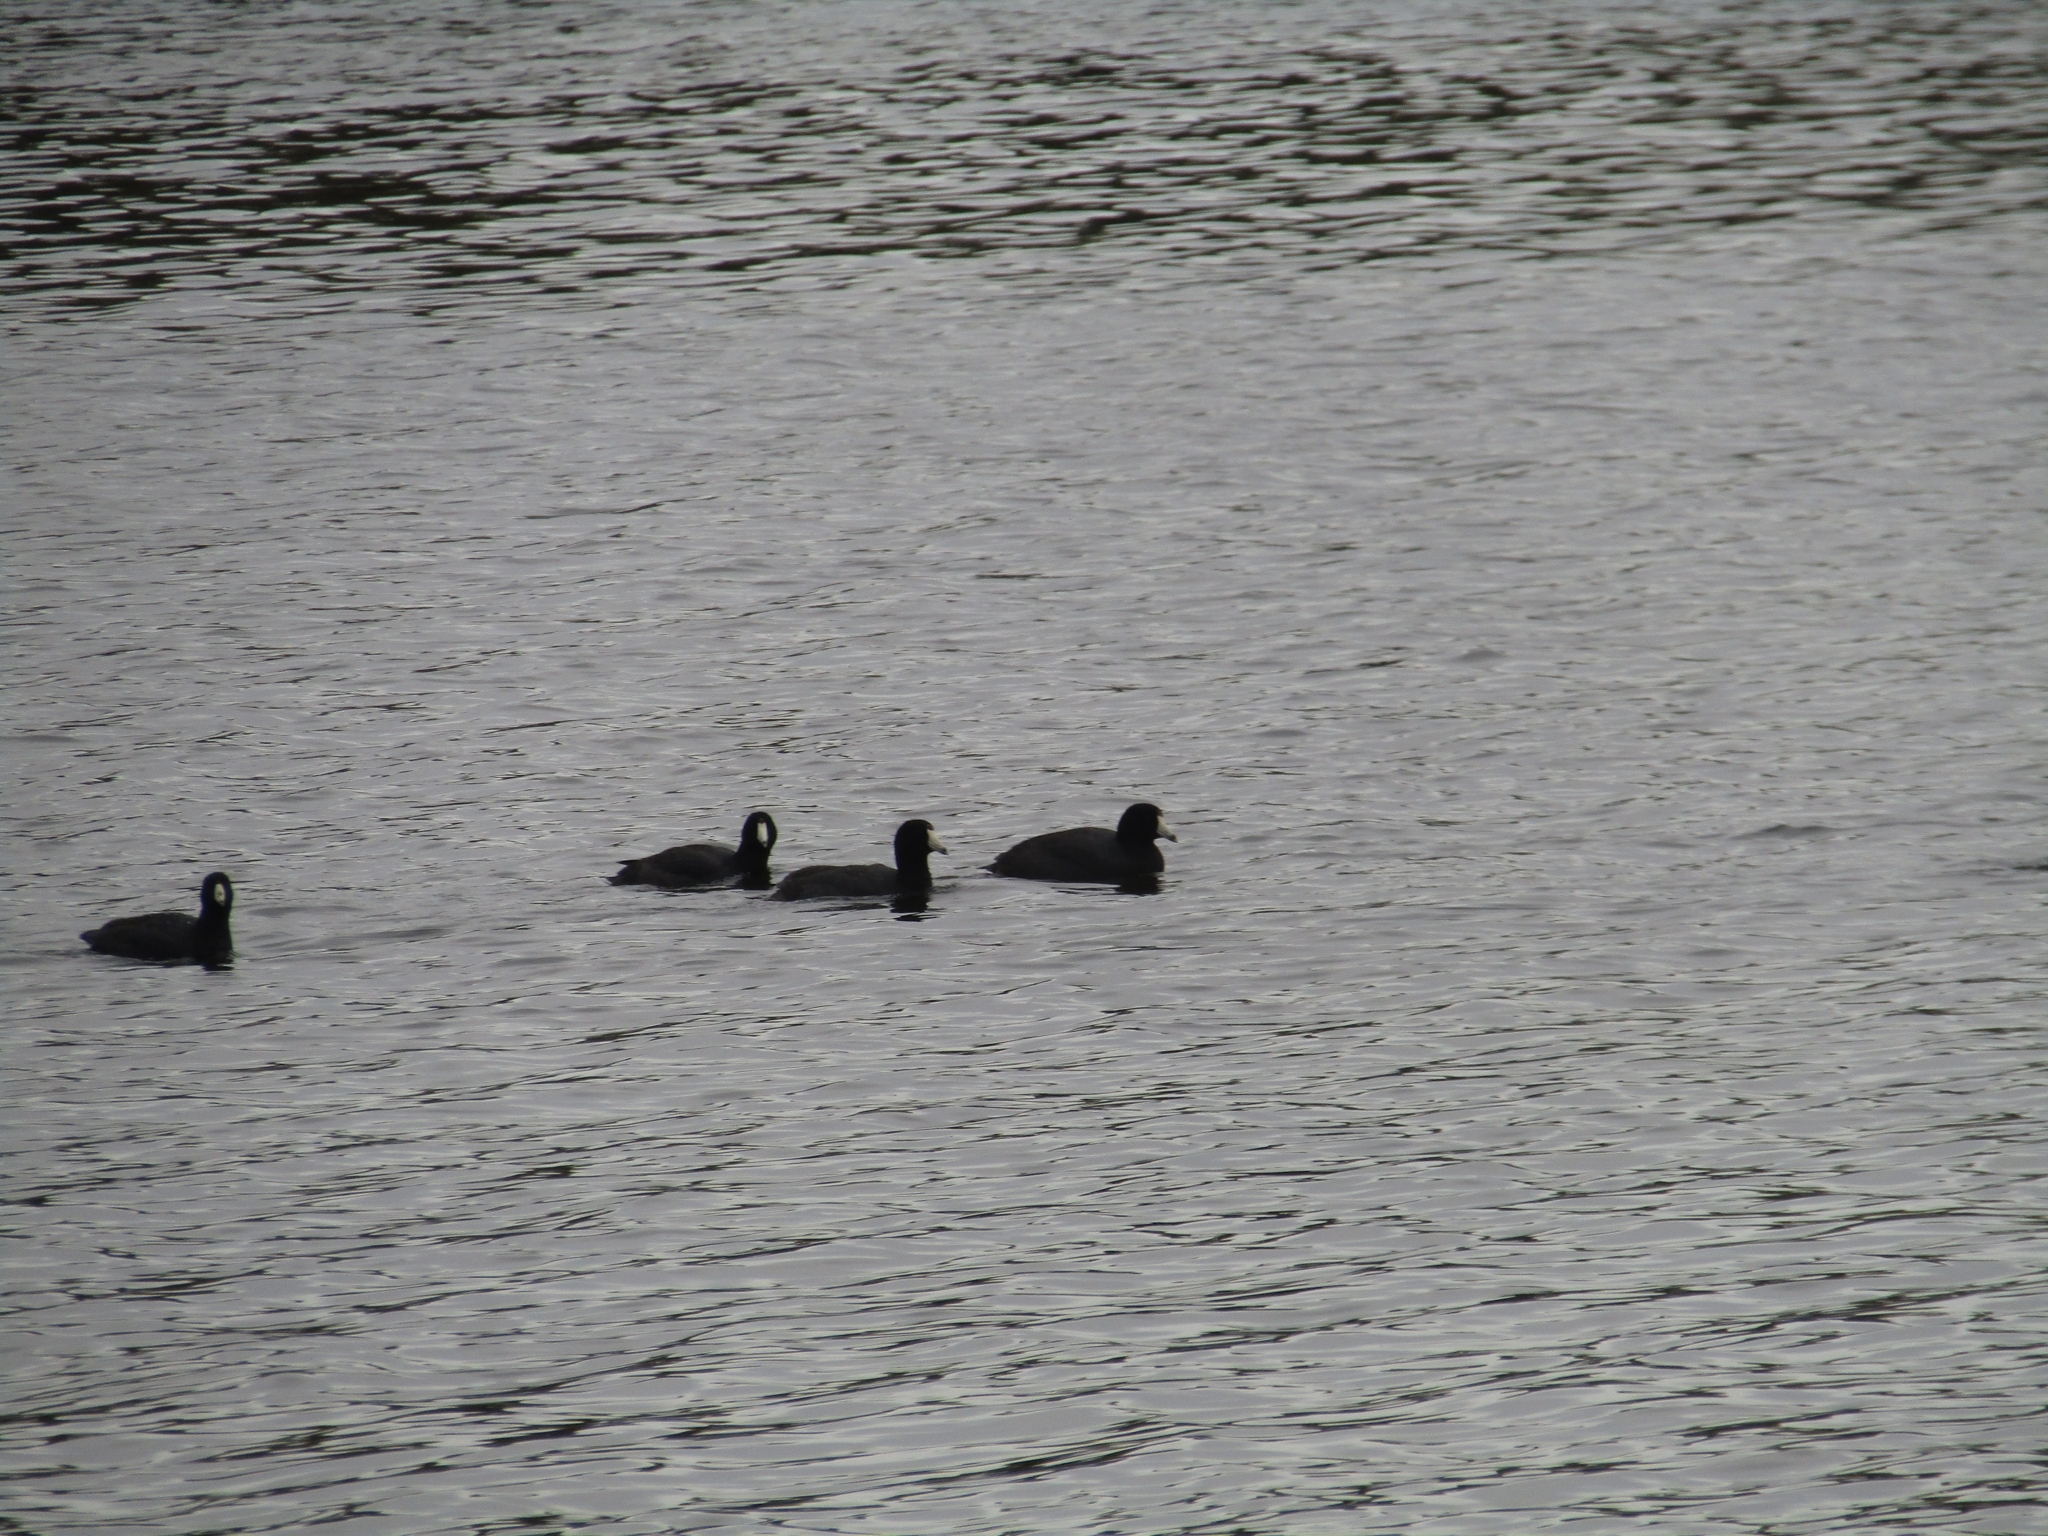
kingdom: Animalia
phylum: Chordata
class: Aves
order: Gruiformes
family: Rallidae
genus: Fulica
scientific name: Fulica americana
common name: American coot
